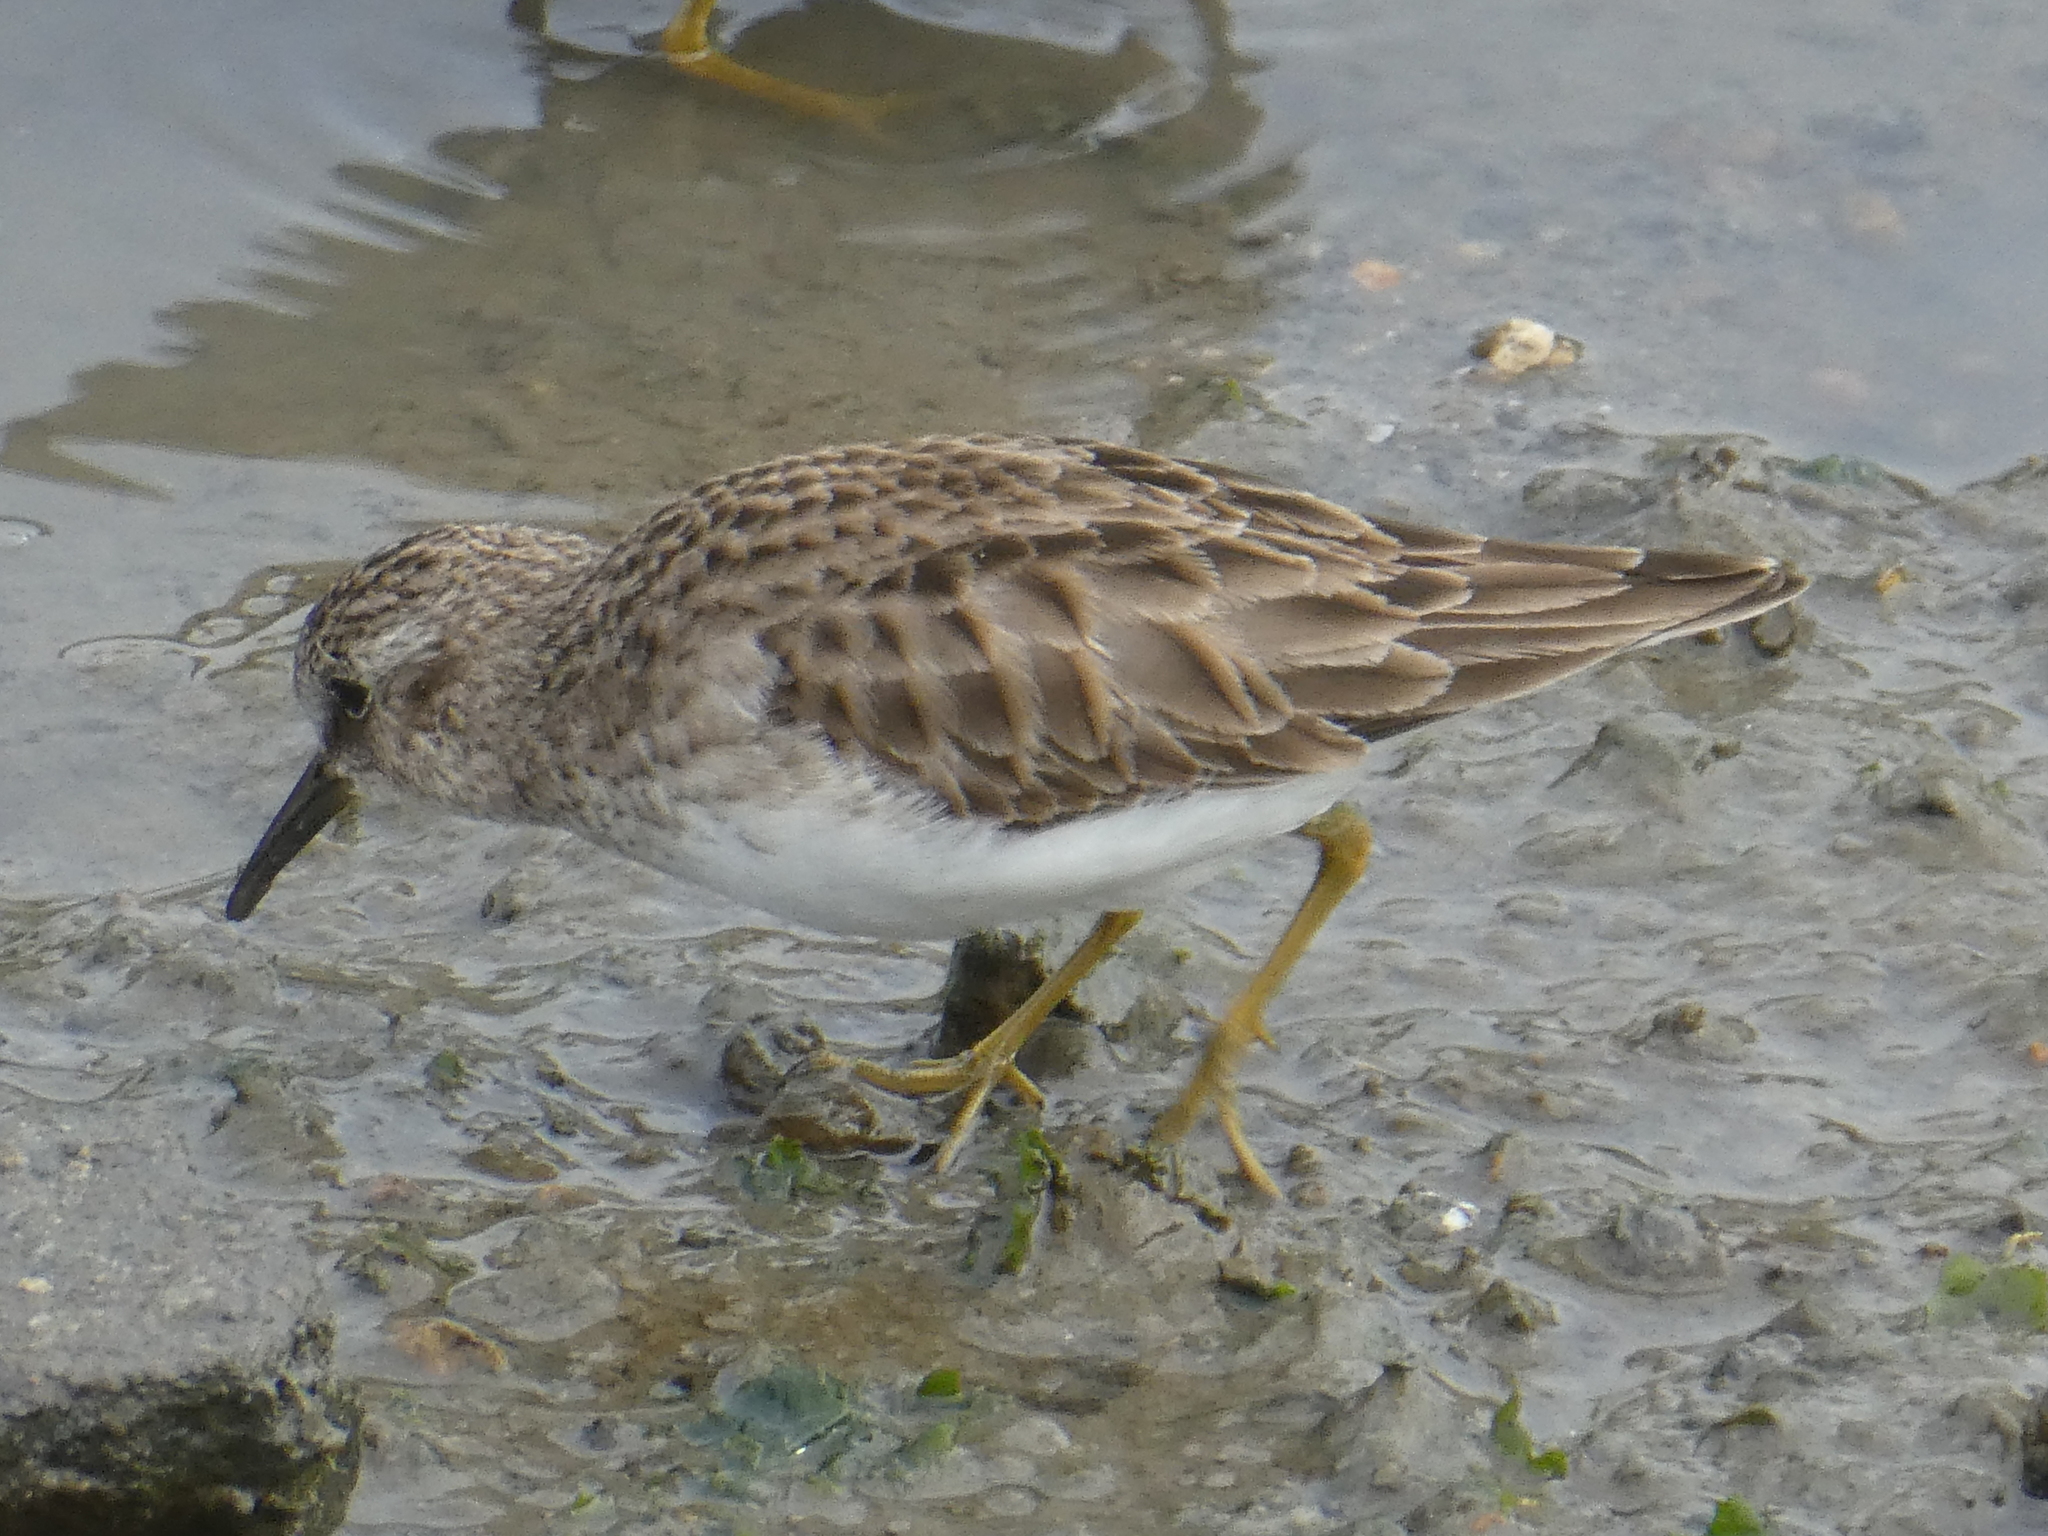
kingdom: Animalia
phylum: Chordata
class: Aves
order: Charadriiformes
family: Scolopacidae
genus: Calidris
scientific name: Calidris minutilla
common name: Least sandpiper
